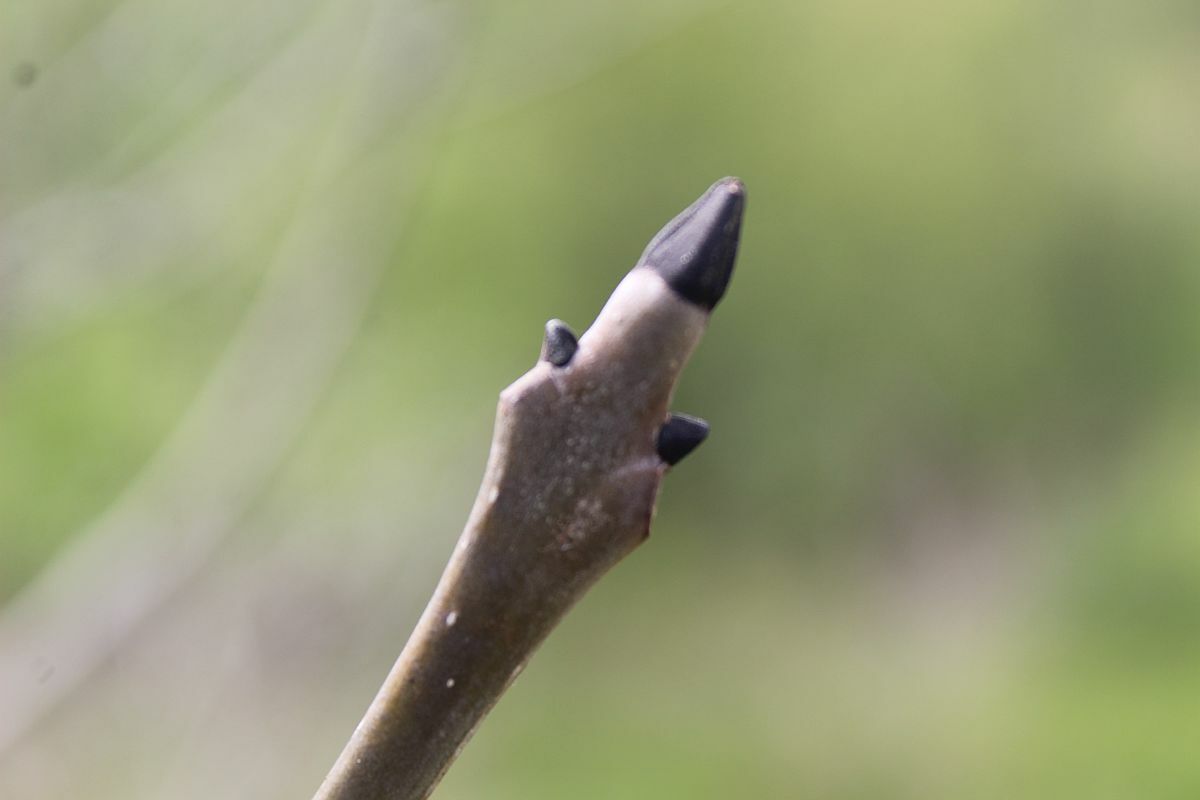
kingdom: Plantae
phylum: Tracheophyta
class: Magnoliopsida
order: Lamiales
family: Oleaceae
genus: Fraxinus
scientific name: Fraxinus excelsior
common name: European ash
